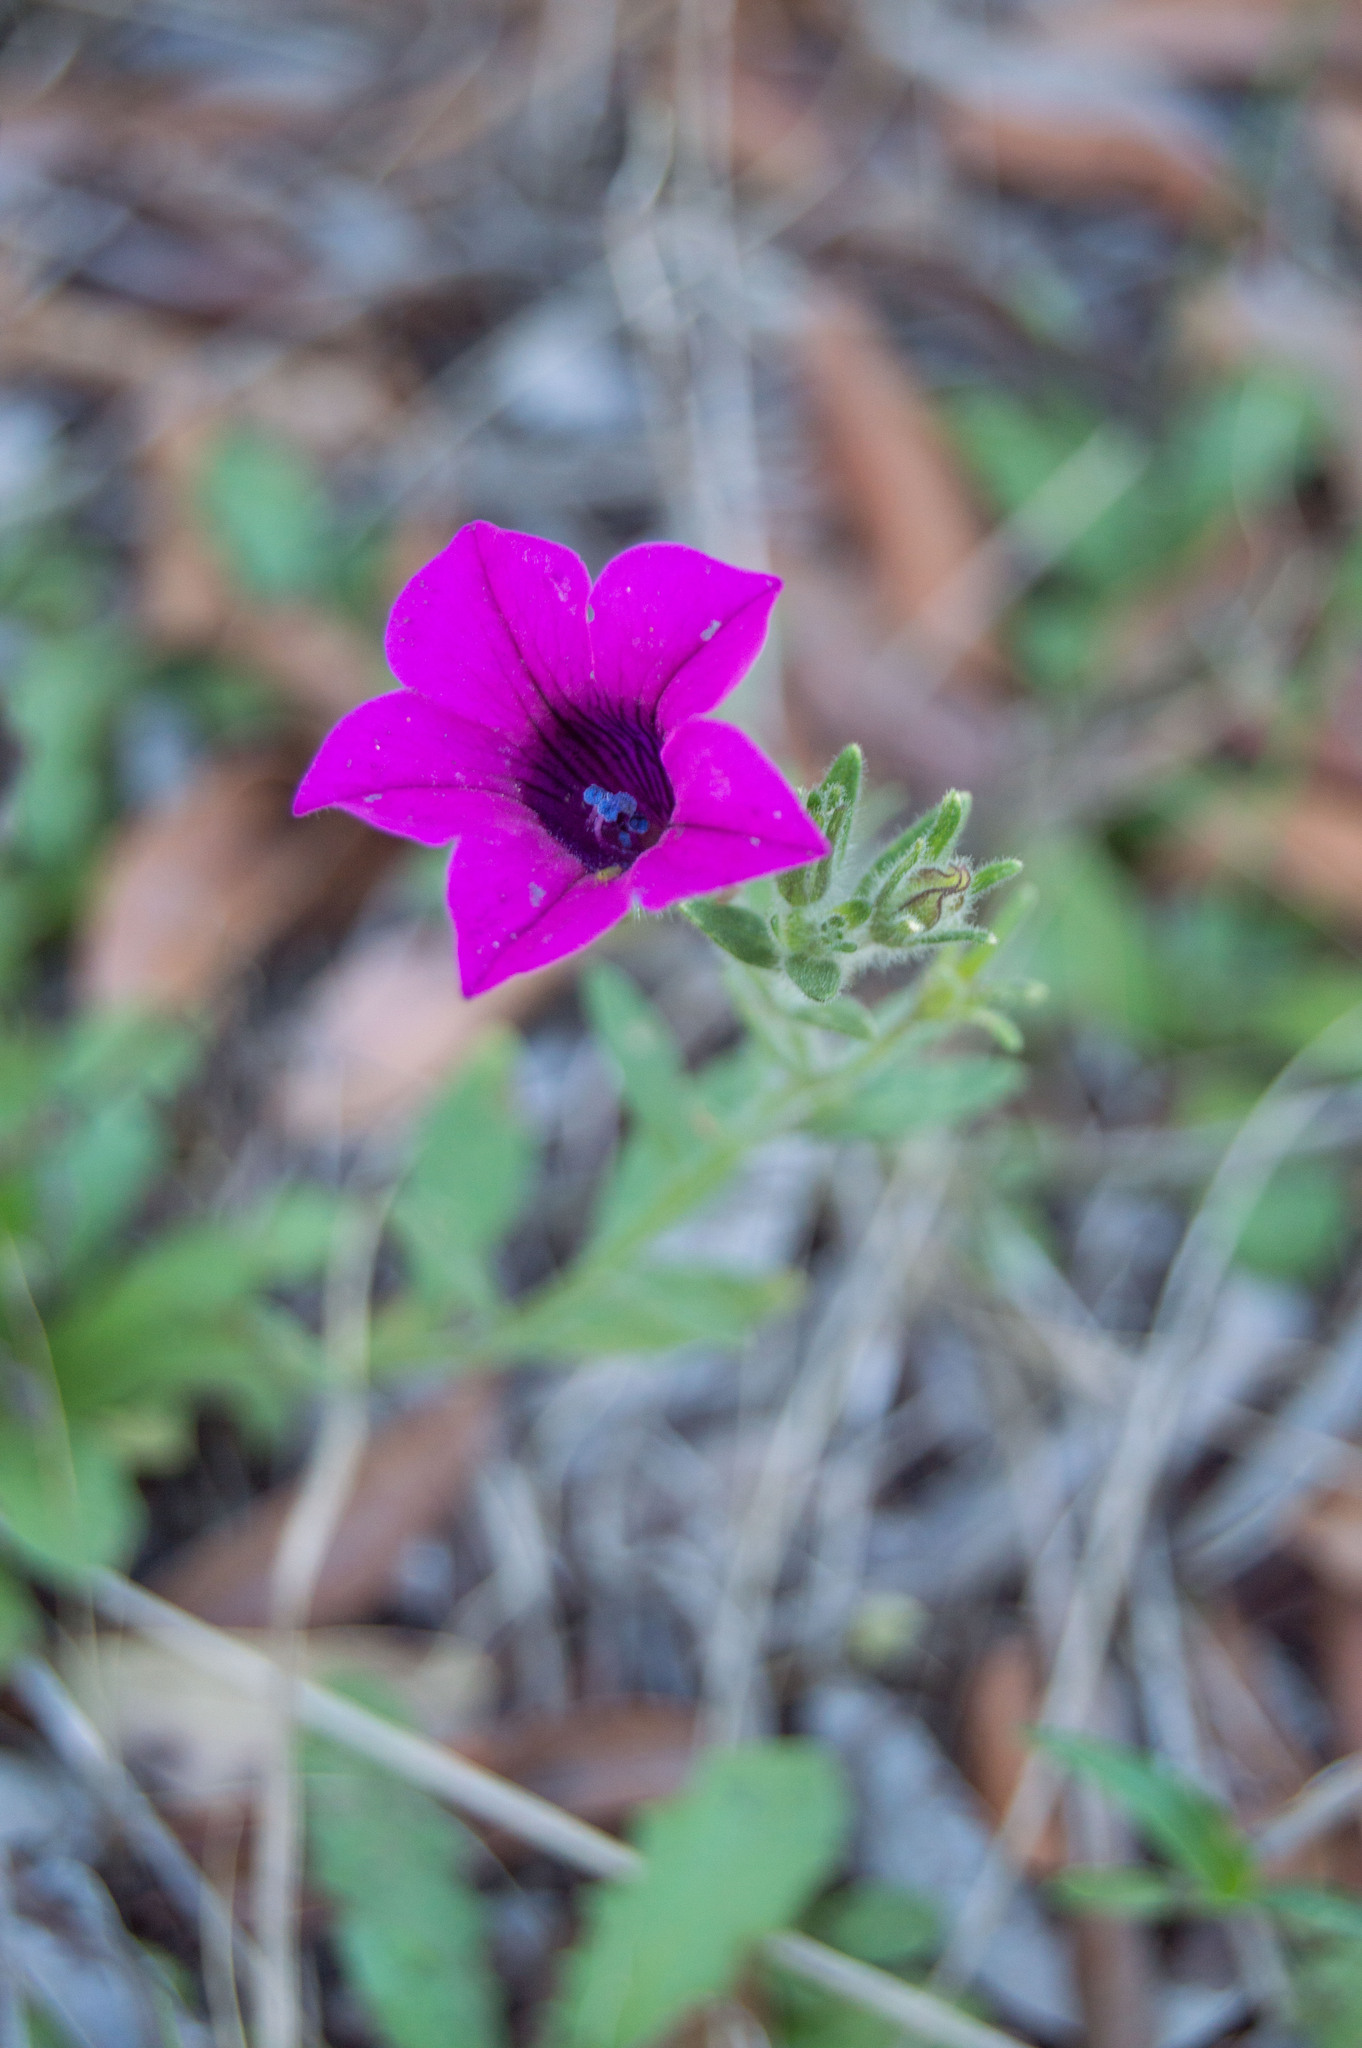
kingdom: Plantae
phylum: Tracheophyta
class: Magnoliopsida
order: Solanales
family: Solanaceae
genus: Petunia
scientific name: Petunia integrifolia
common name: Violet-flower petunia
